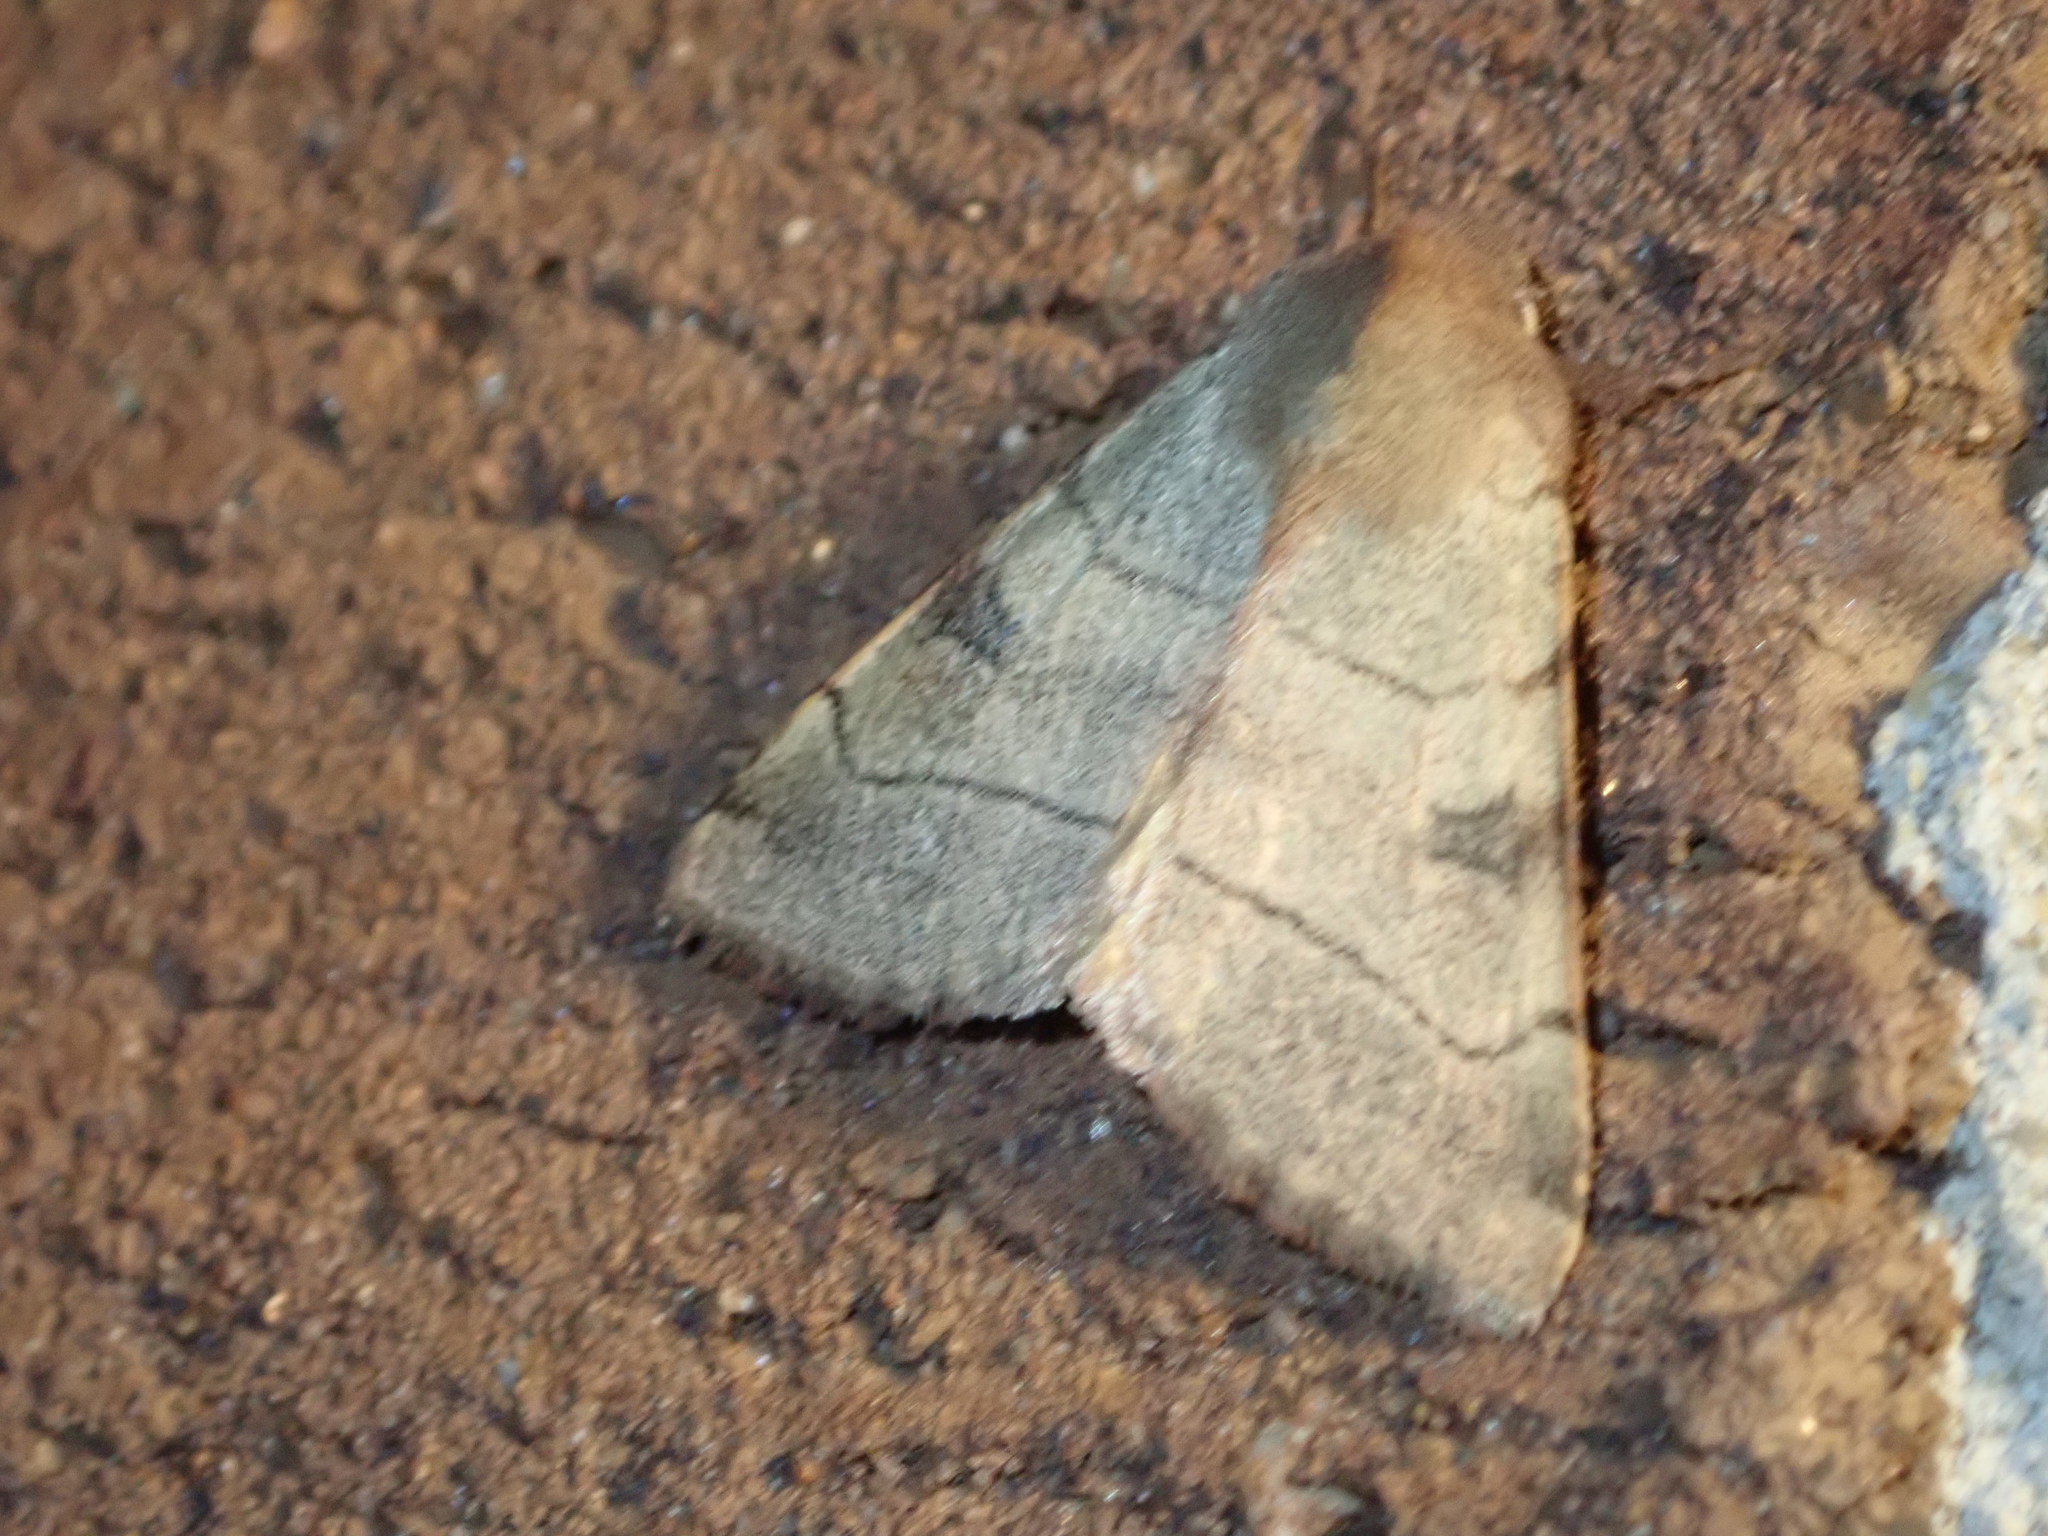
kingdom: Animalia
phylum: Arthropoda
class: Insecta
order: Lepidoptera
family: Noctuidae
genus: Choephora
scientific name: Choephora fungorum
